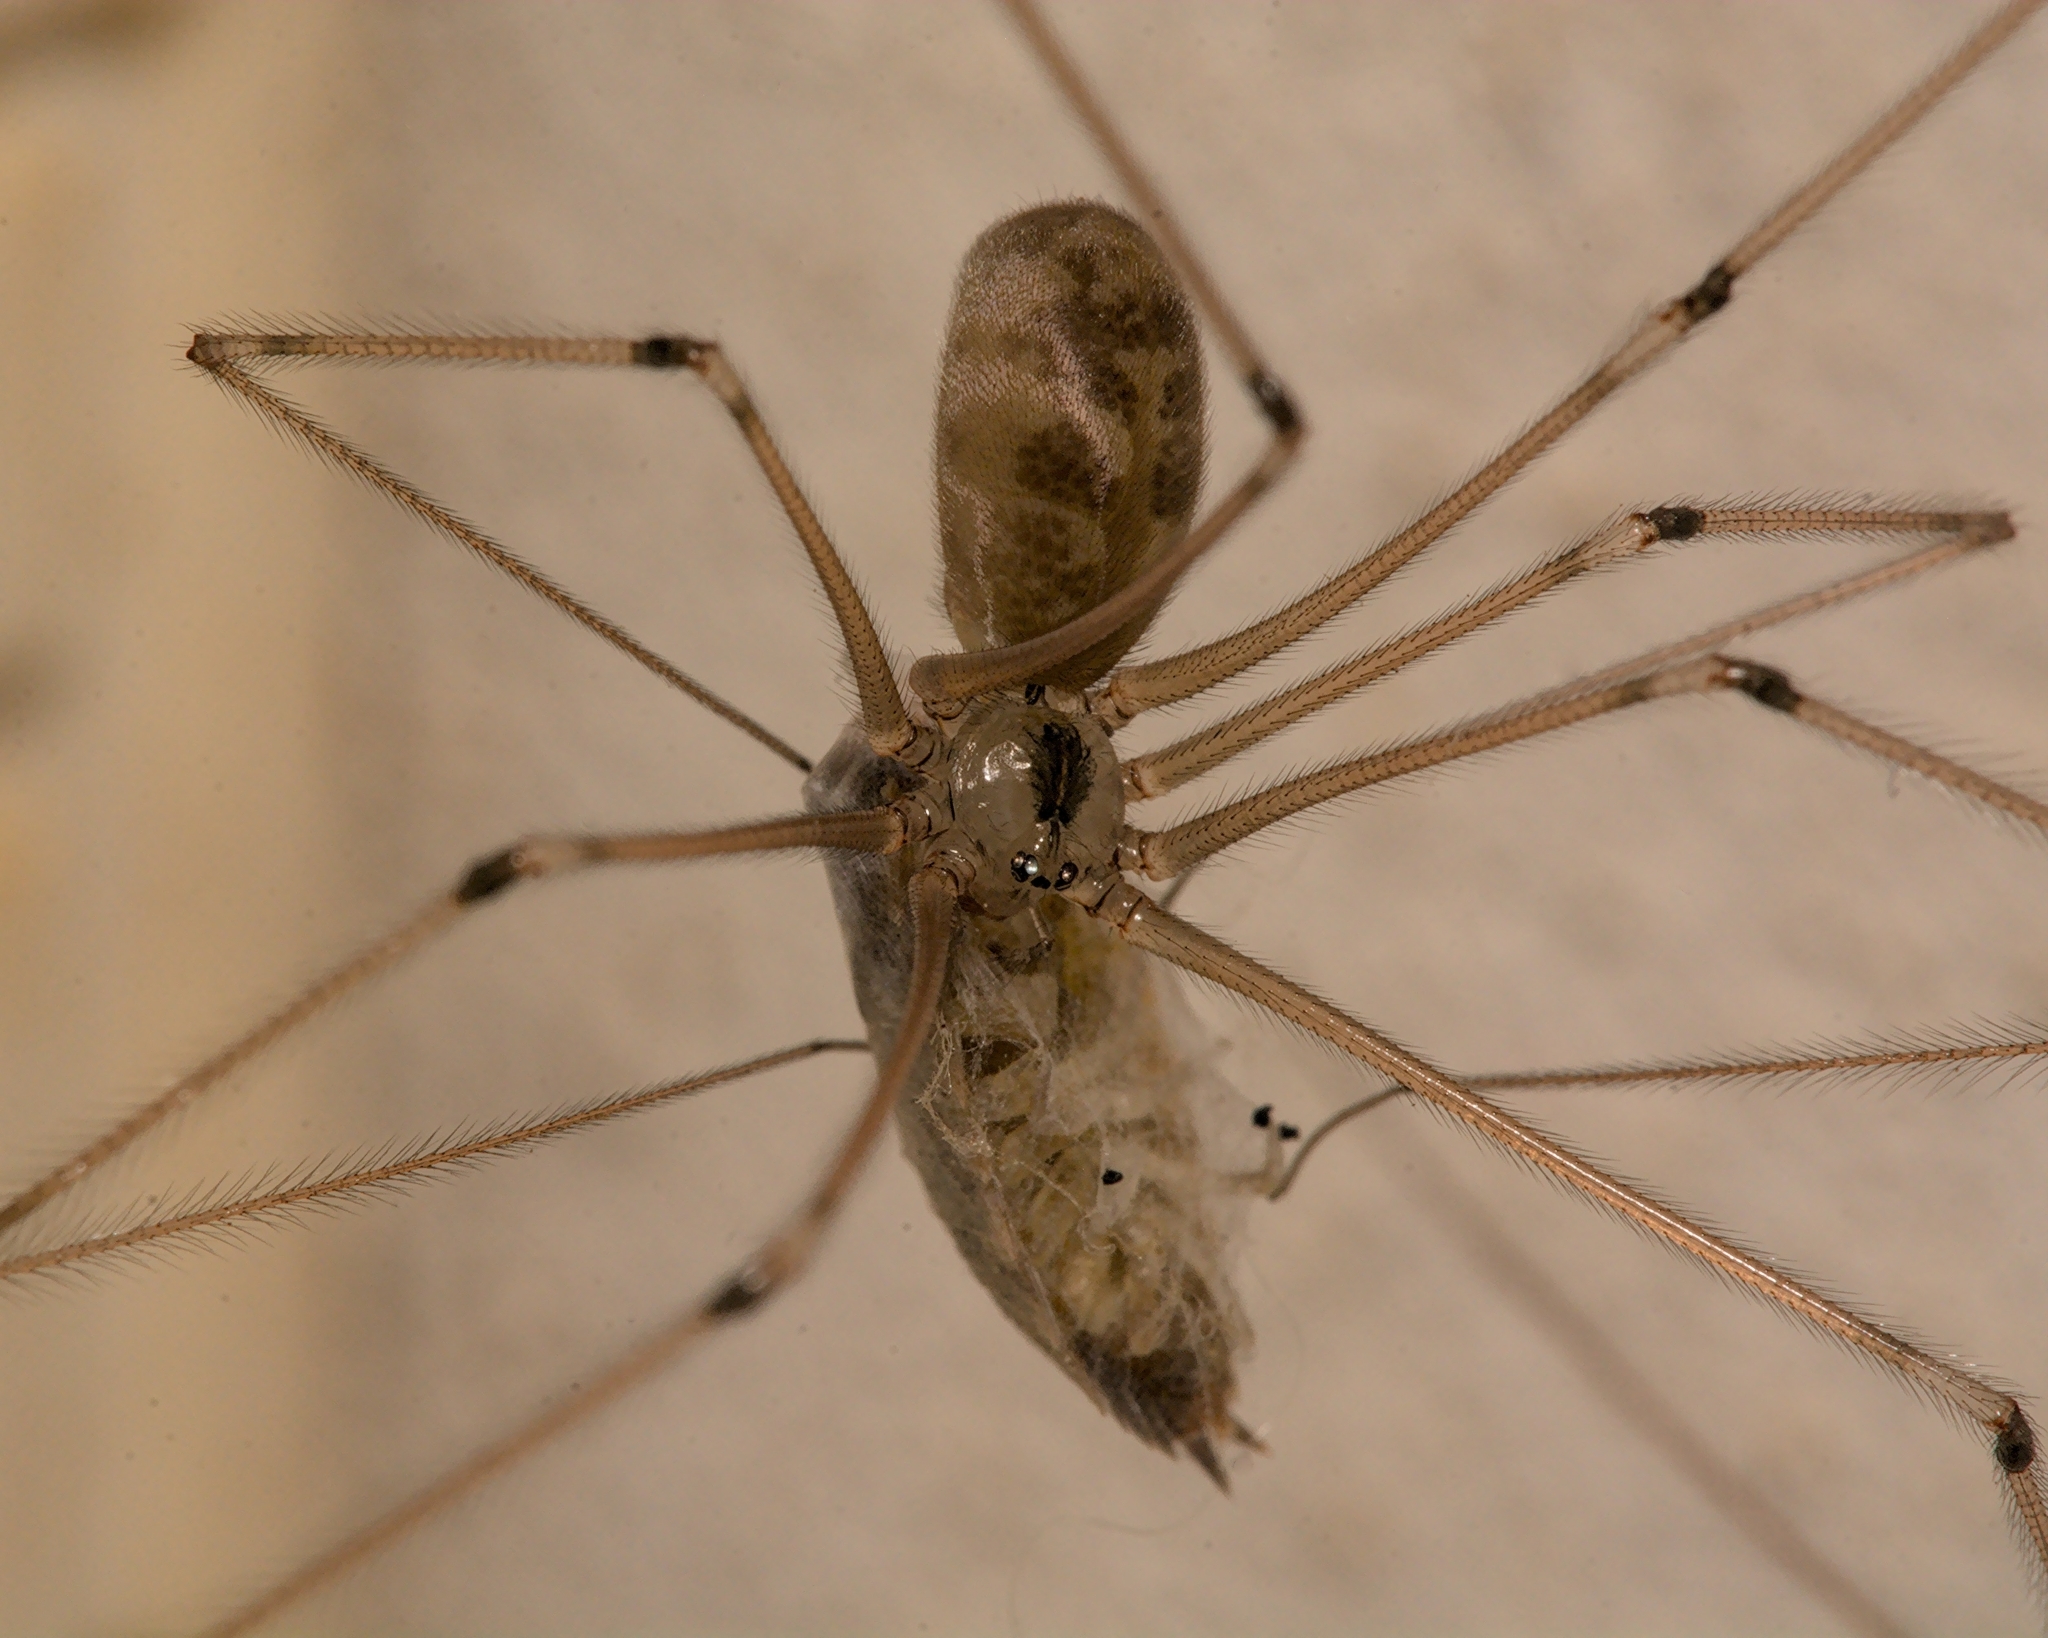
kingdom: Animalia
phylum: Arthropoda
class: Arachnida
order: Araneae
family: Pholcidae
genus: Pholcus
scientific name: Pholcus phalangioides
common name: Longbodied cellar spider
